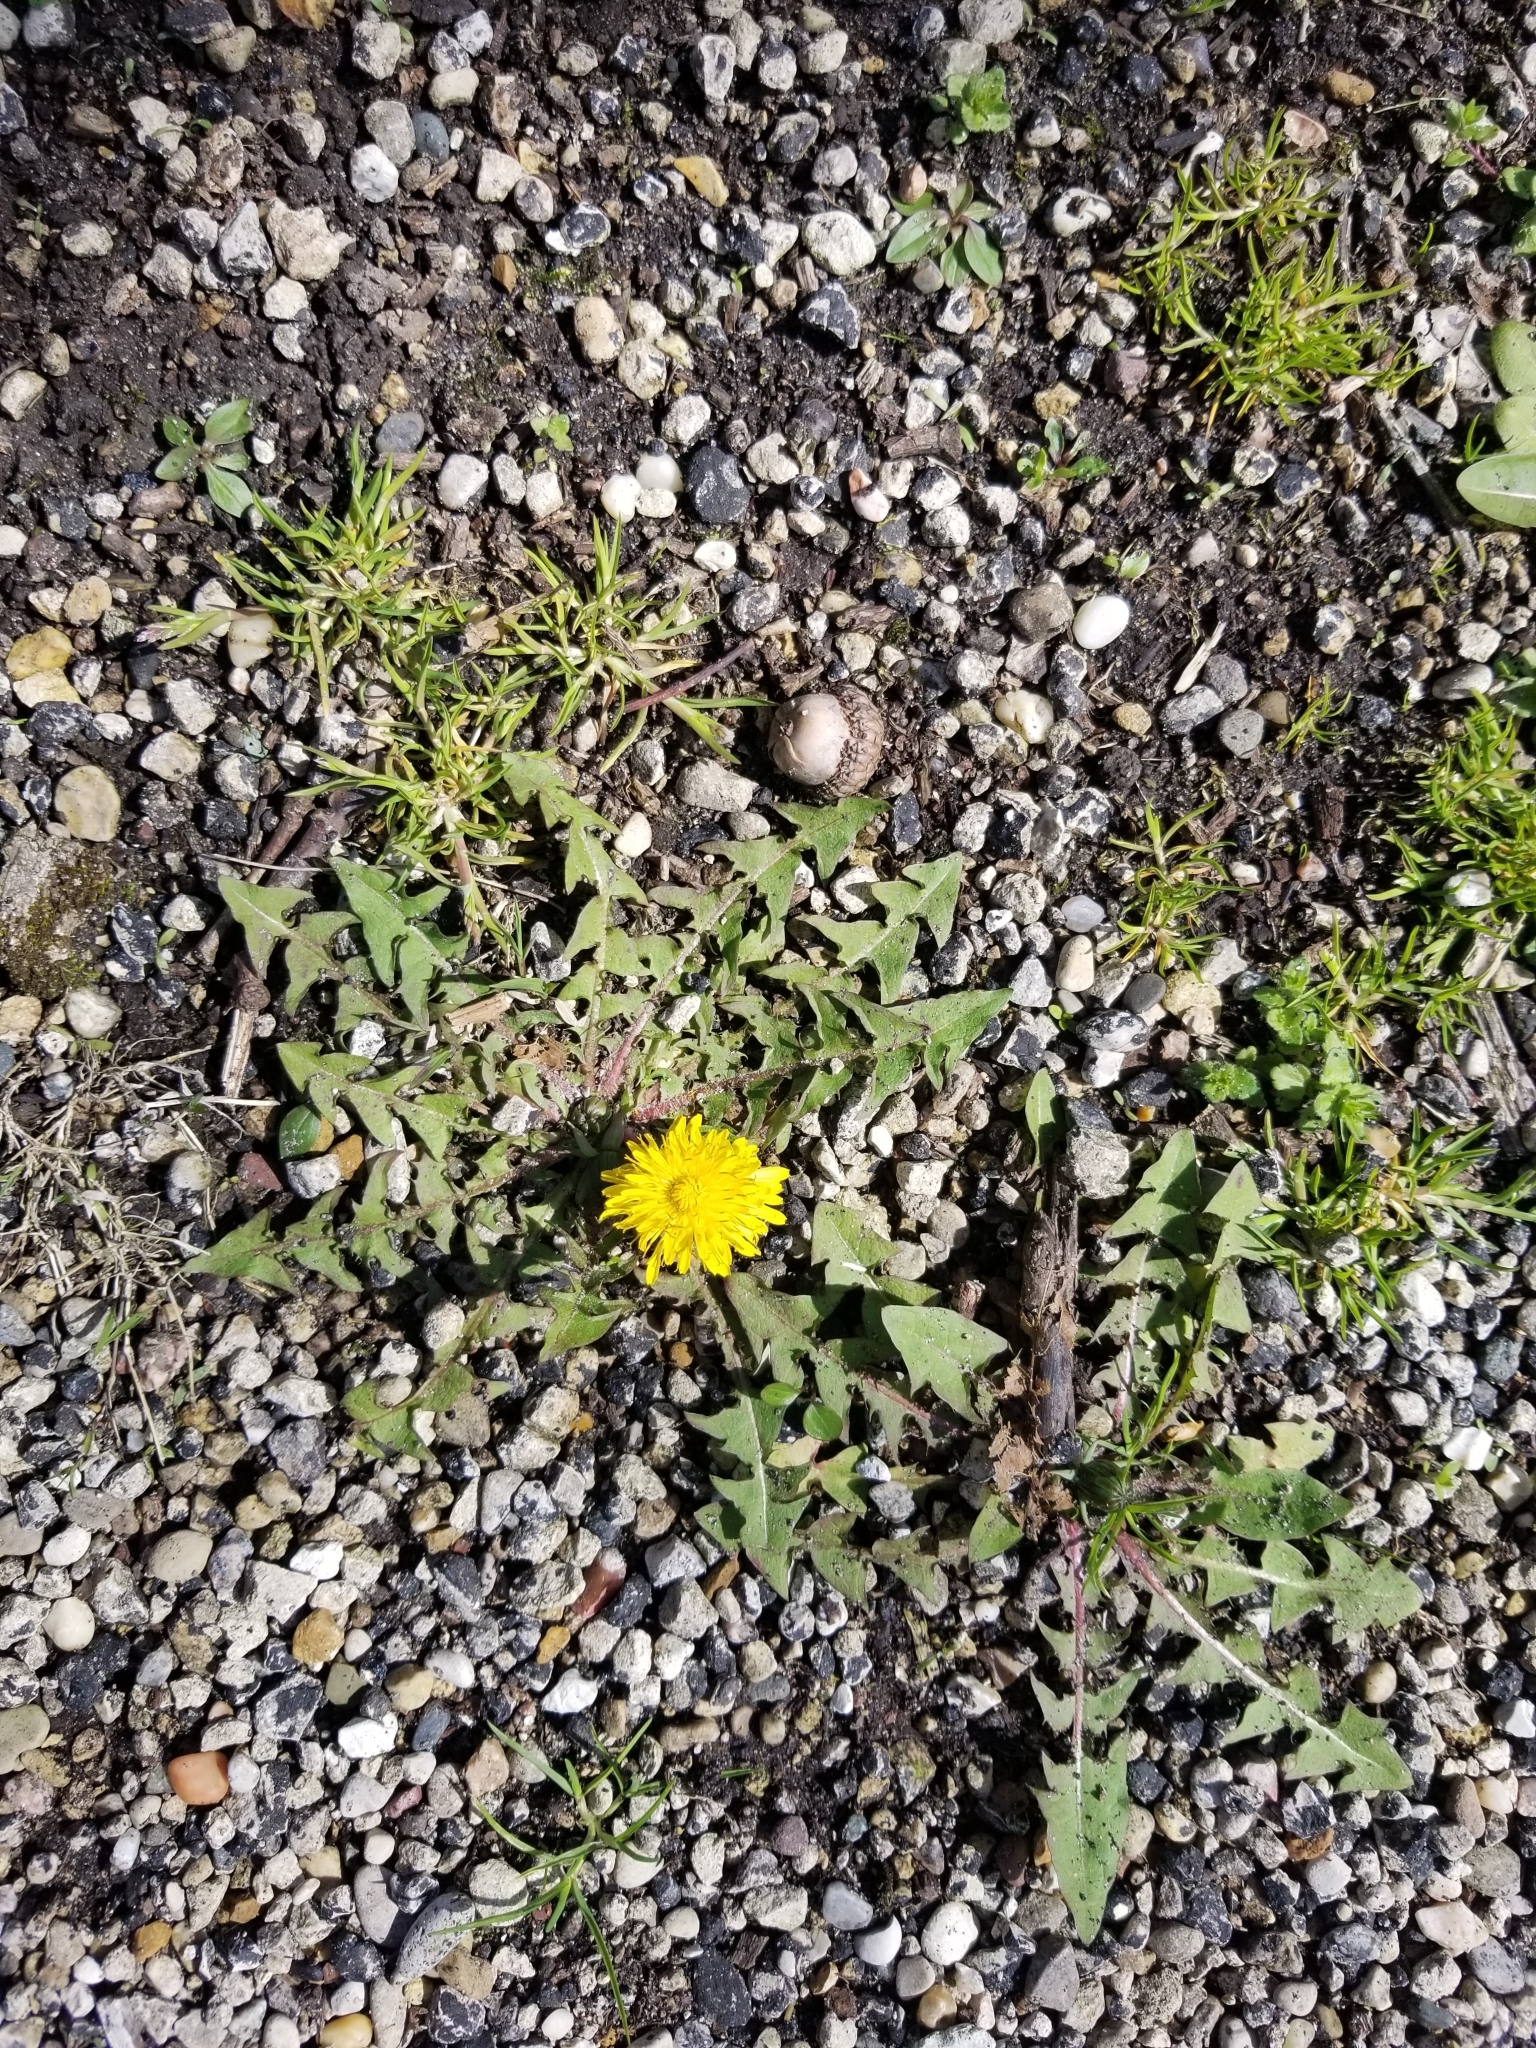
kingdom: Plantae
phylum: Tracheophyta
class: Magnoliopsida
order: Asterales
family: Asteraceae
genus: Taraxacum
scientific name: Taraxacum officinale
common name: Common dandelion
